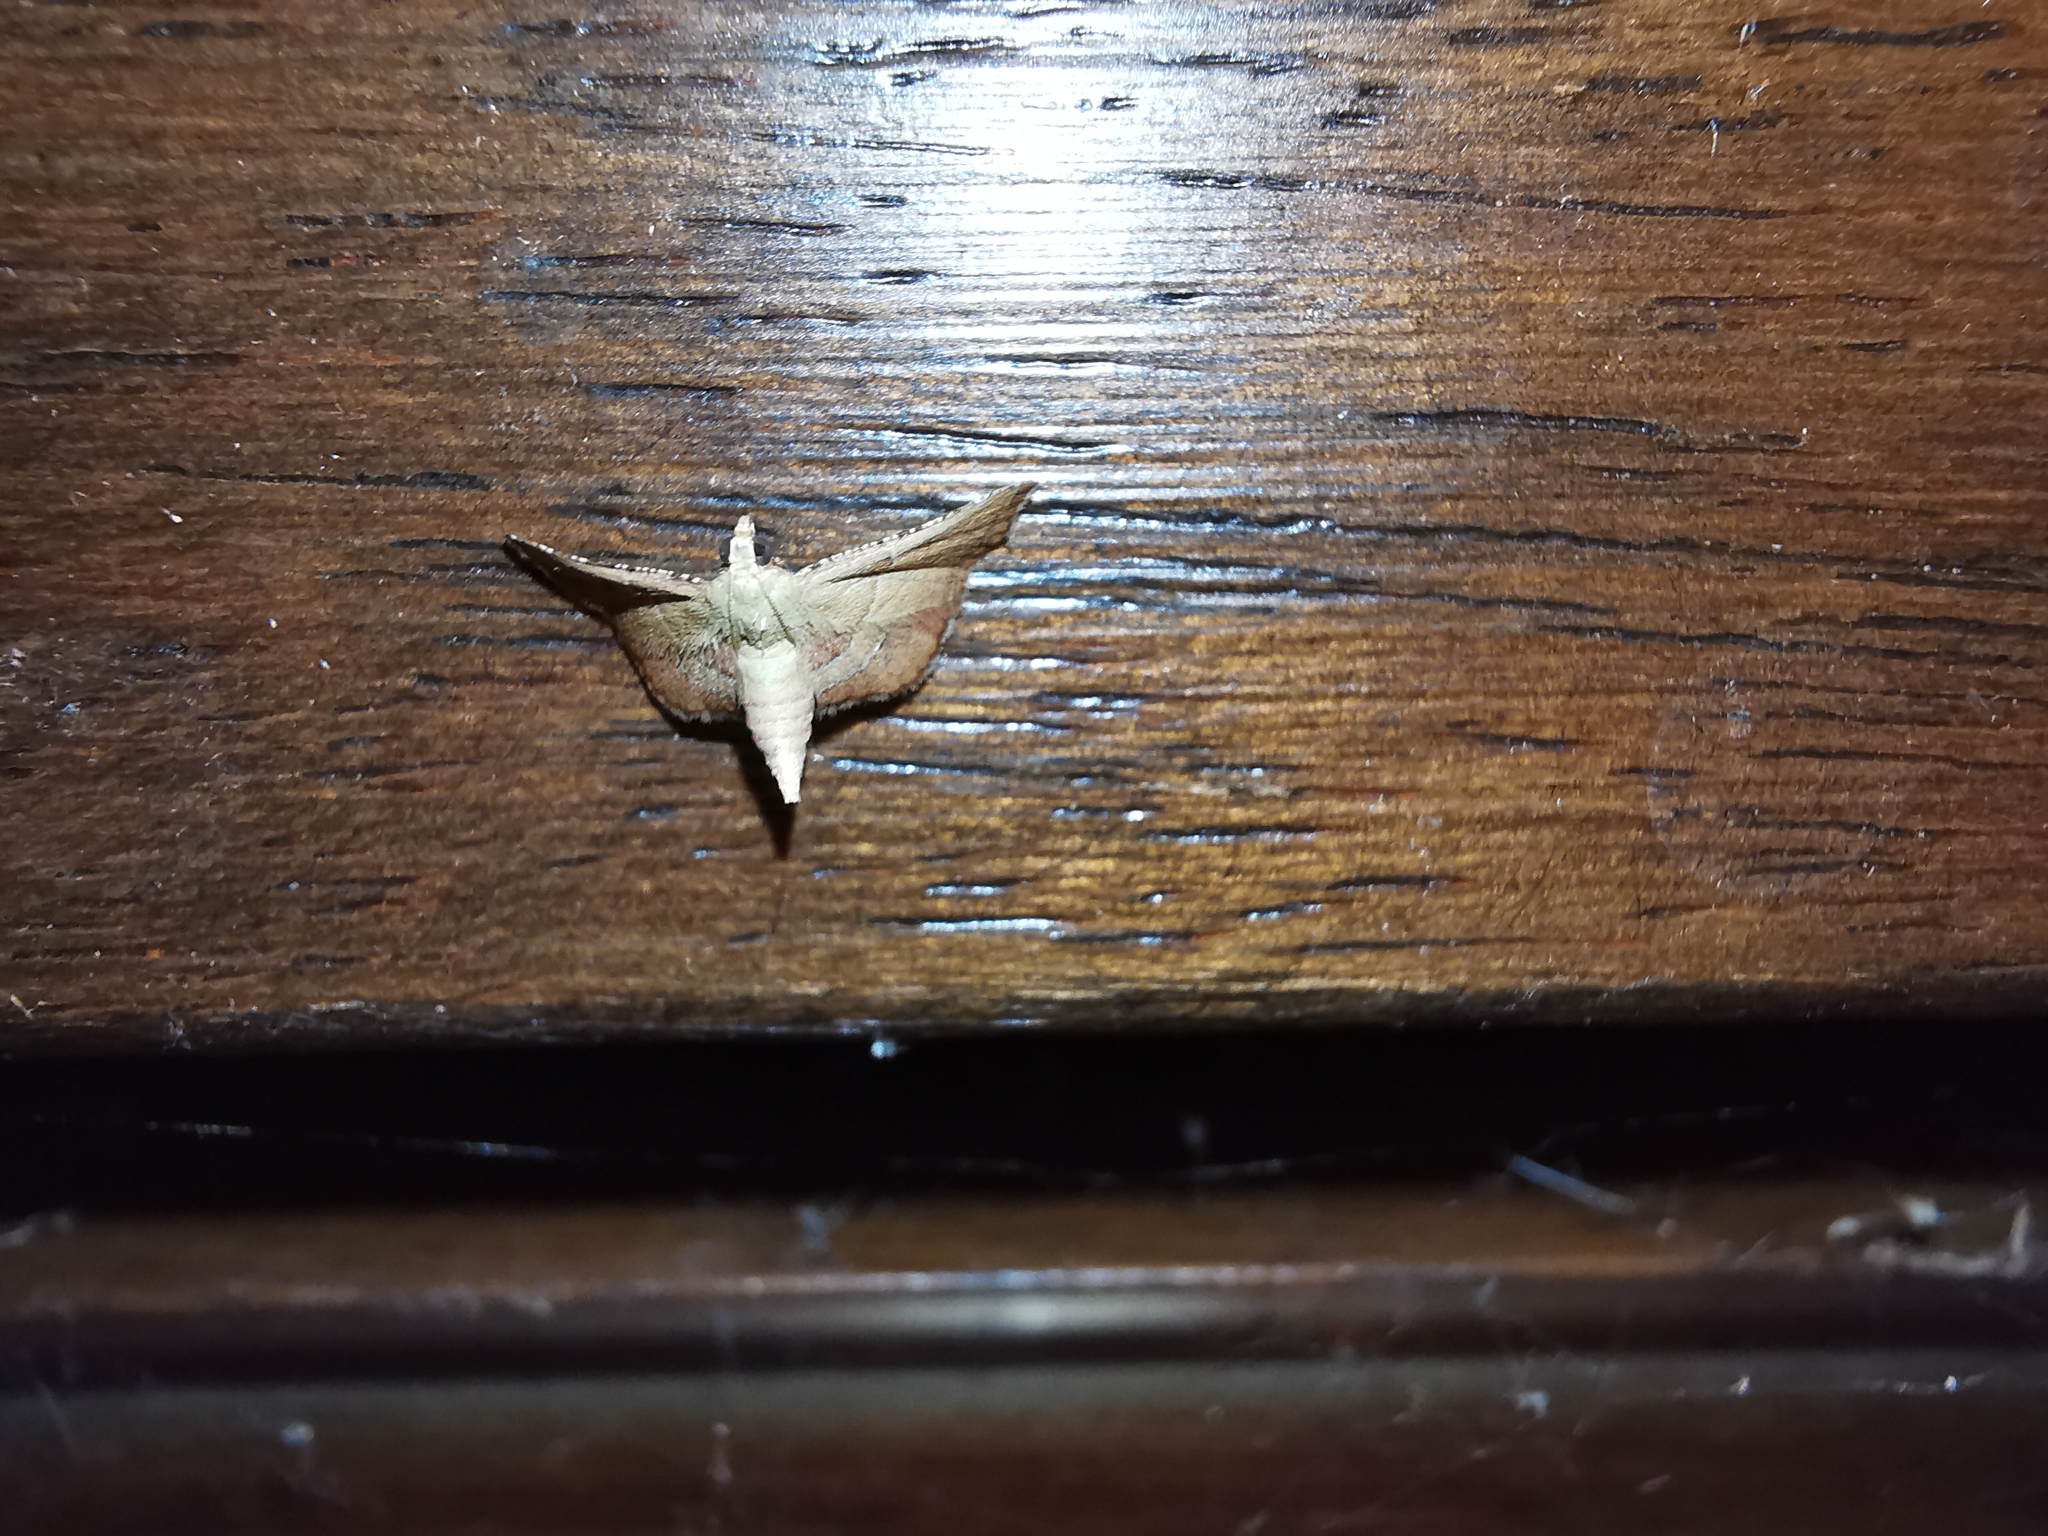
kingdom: Animalia
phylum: Arthropoda
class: Insecta
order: Lepidoptera
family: Pyralidae
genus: Endotricha
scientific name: Endotricha flammealis
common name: Rosy tabby
